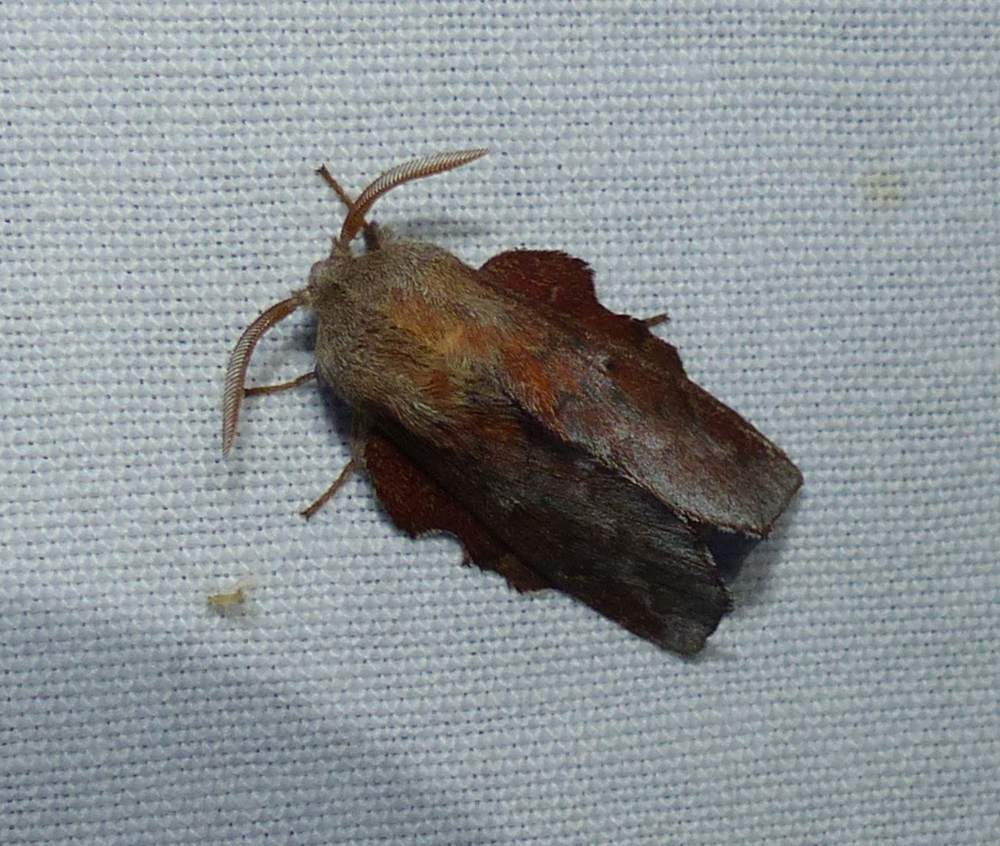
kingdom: Animalia
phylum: Arthropoda
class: Insecta
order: Lepidoptera
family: Lasiocampidae
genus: Phyllodesma
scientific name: Phyllodesma americana
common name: American lappet moth
